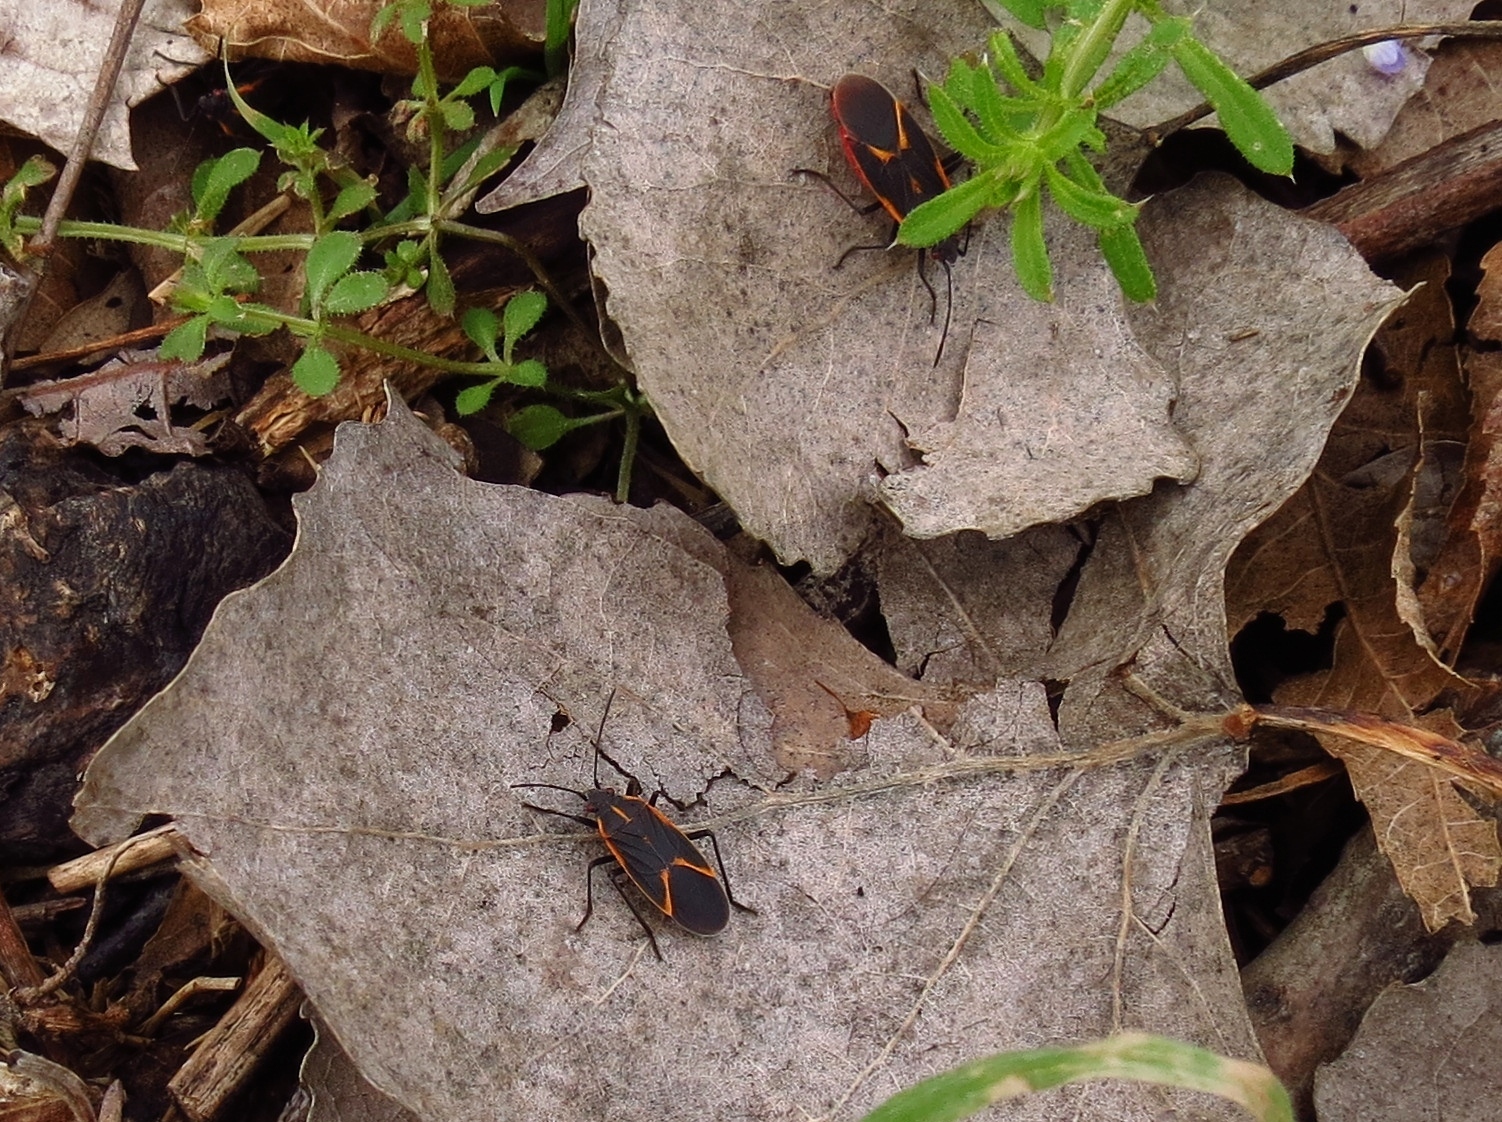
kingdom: Animalia
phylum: Arthropoda
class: Insecta
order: Hemiptera
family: Rhopalidae
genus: Boisea
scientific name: Boisea trivittata
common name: Boxelder bug
